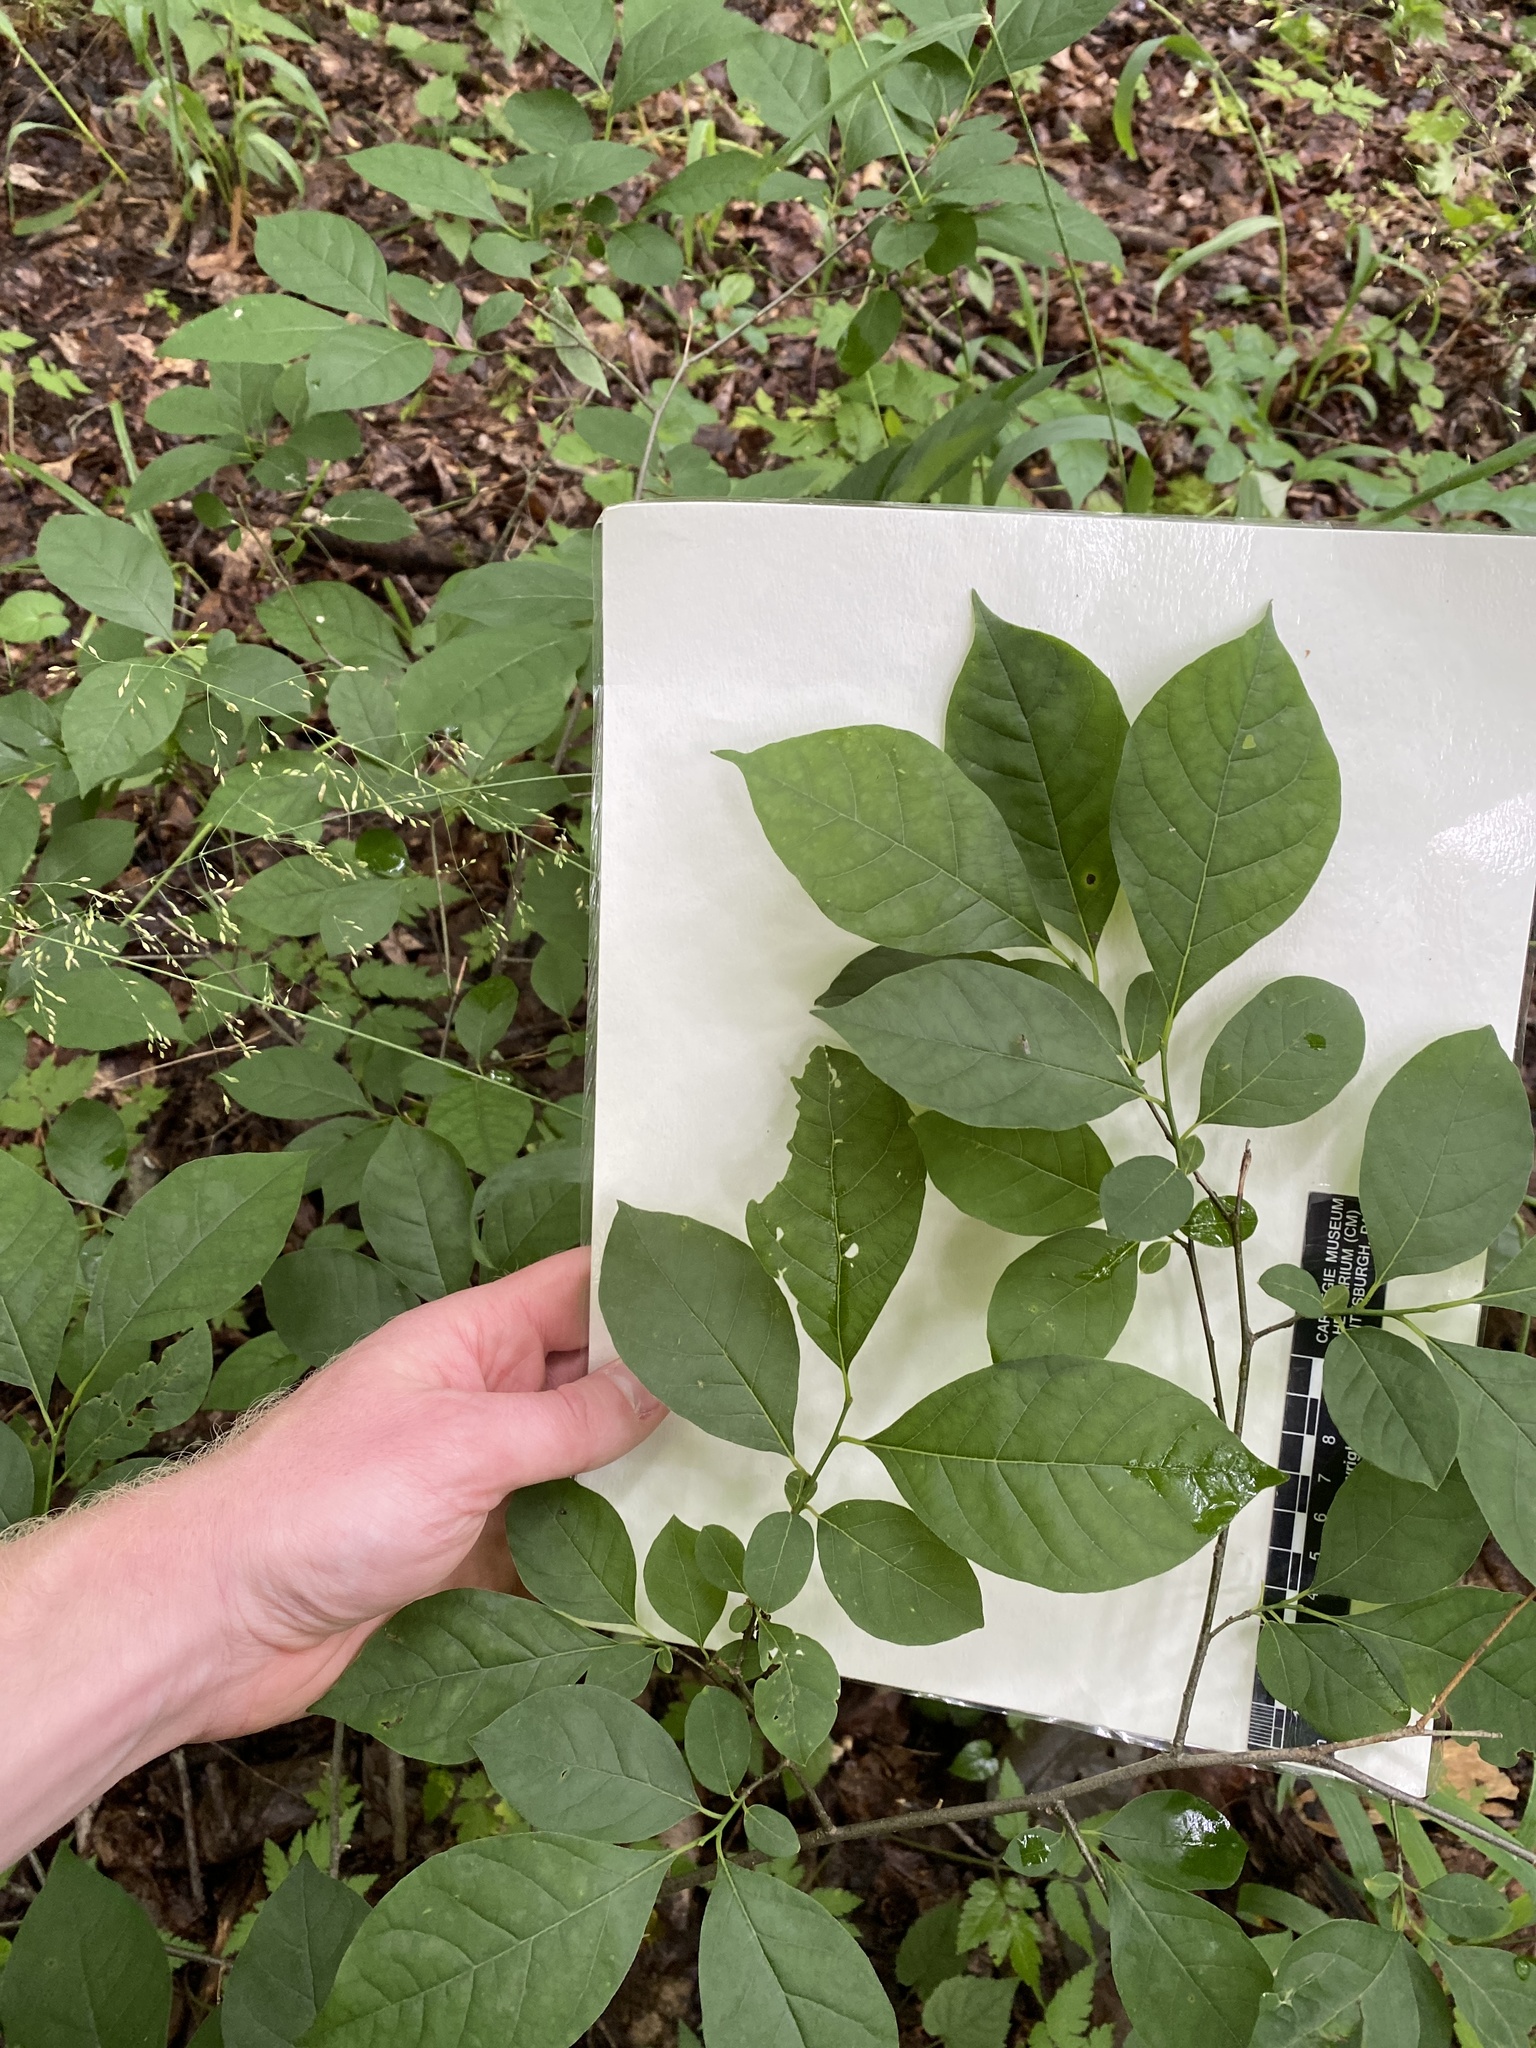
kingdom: Plantae
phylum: Tracheophyta
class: Magnoliopsida
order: Laurales
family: Lauraceae
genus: Lindera
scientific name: Lindera benzoin
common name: Spicebush
